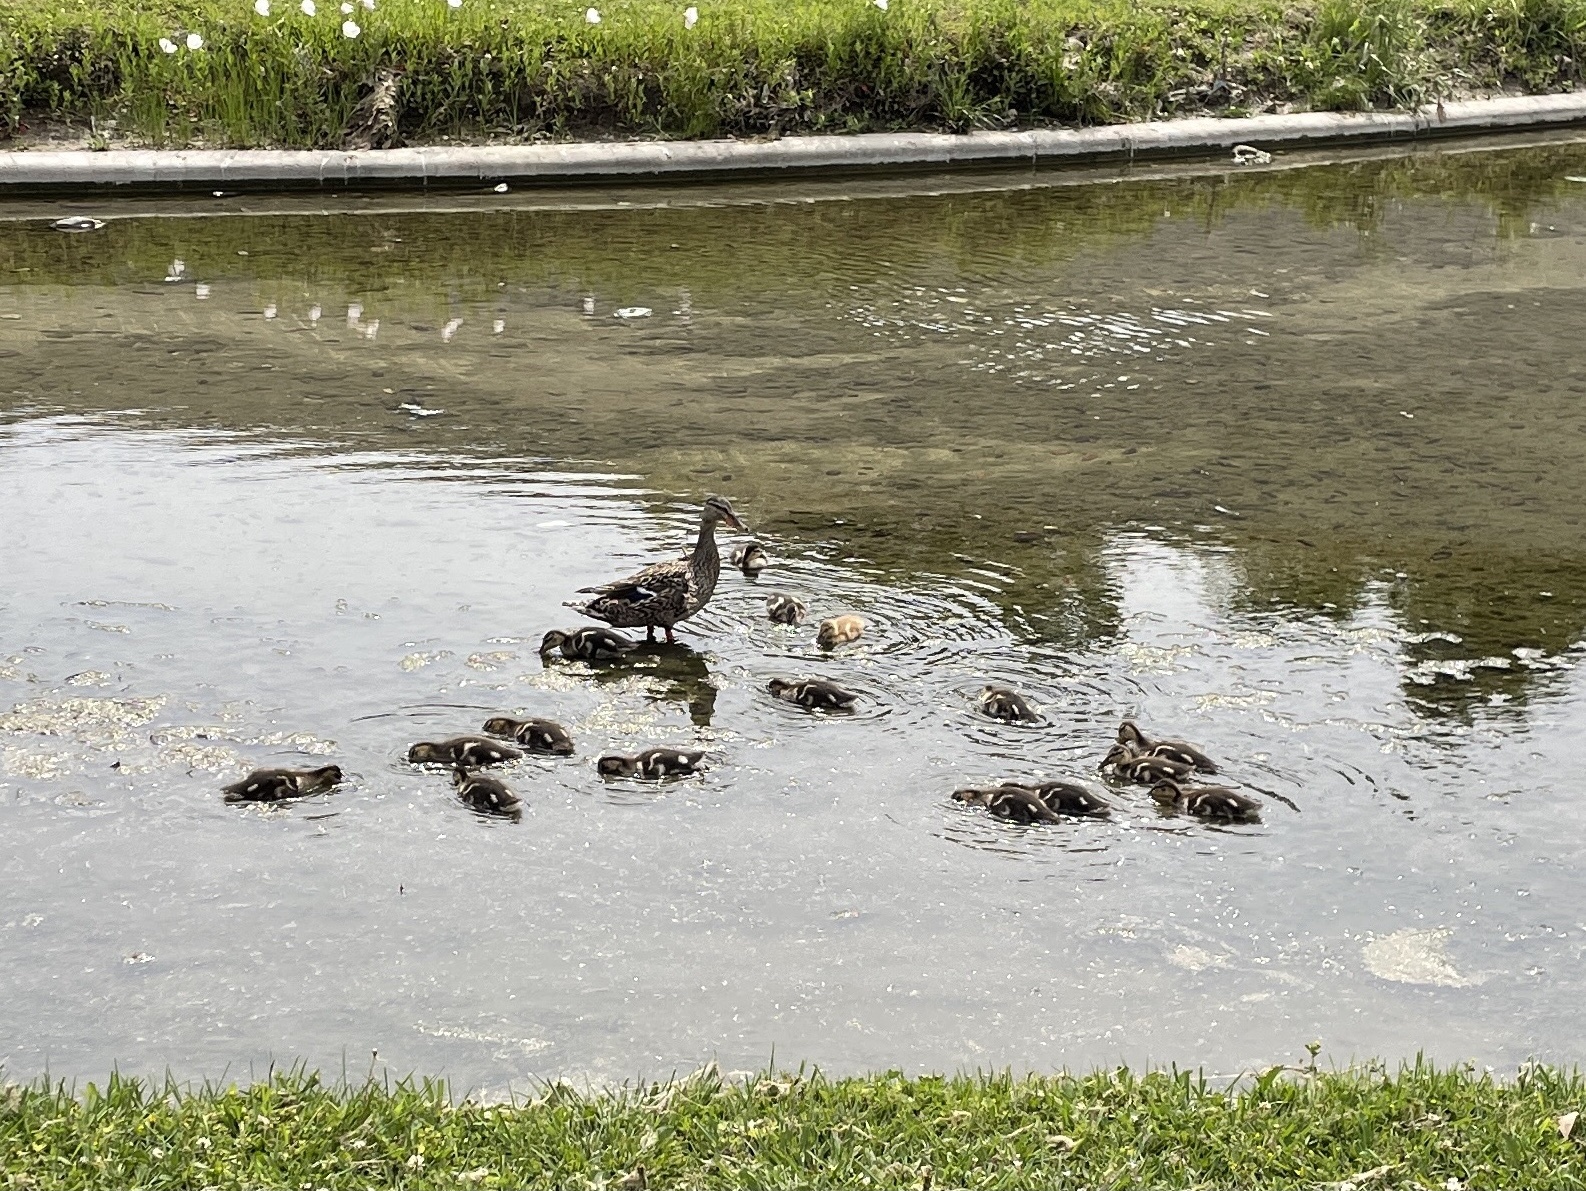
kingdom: Animalia
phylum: Chordata
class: Aves
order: Anseriformes
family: Anatidae
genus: Anas
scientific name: Anas platyrhynchos
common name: Mallard
